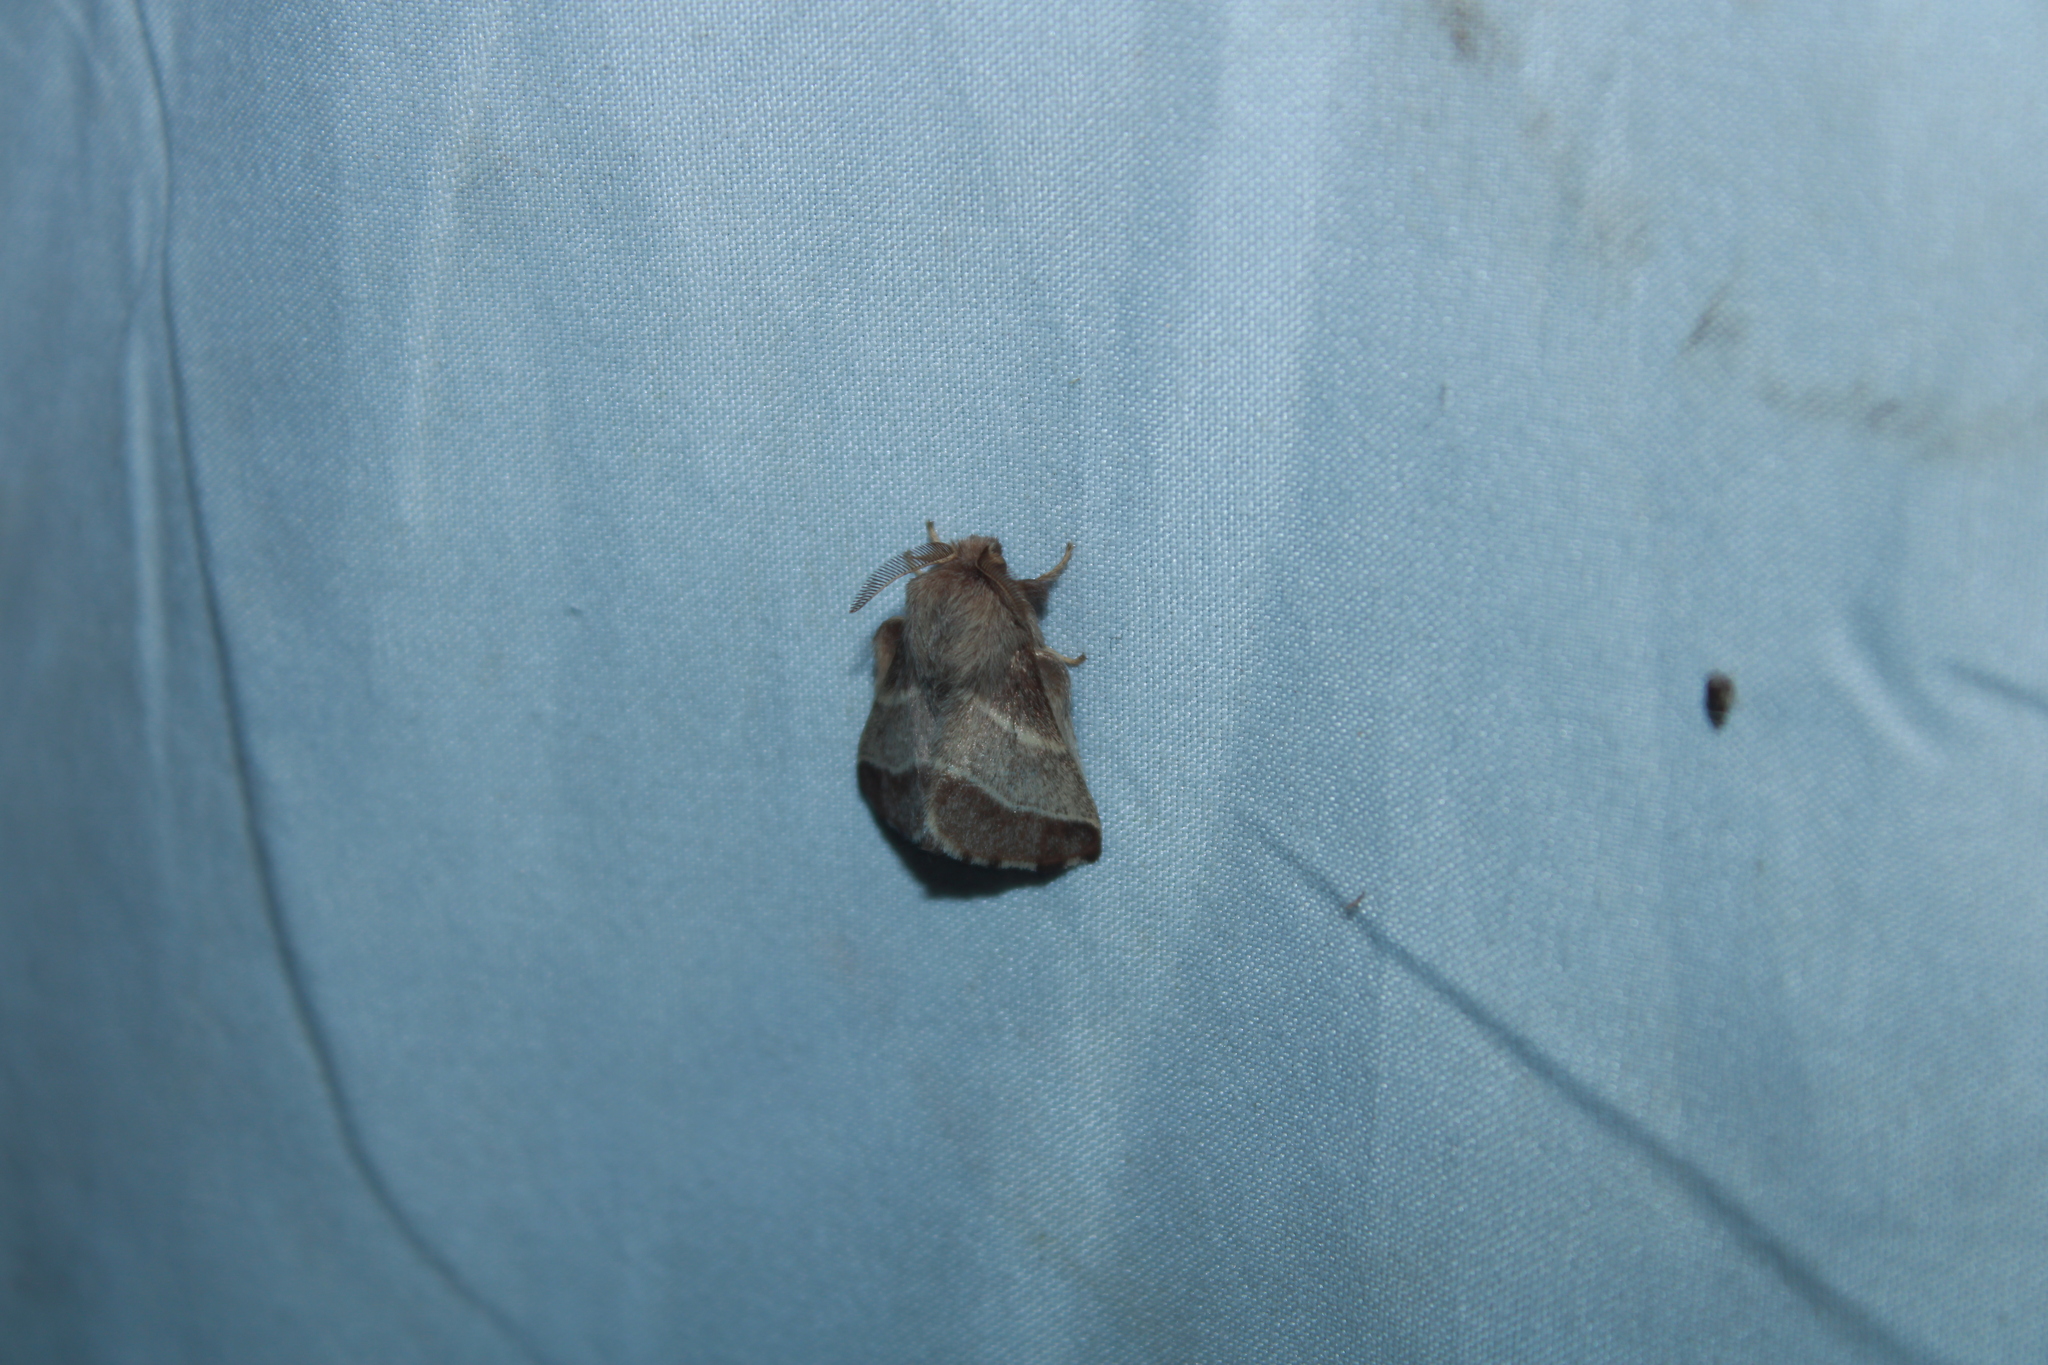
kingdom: Animalia
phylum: Arthropoda
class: Insecta
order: Lepidoptera
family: Lasiocampidae
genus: Malacosoma
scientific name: Malacosoma americana
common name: Eastern tent caterpillar moth
